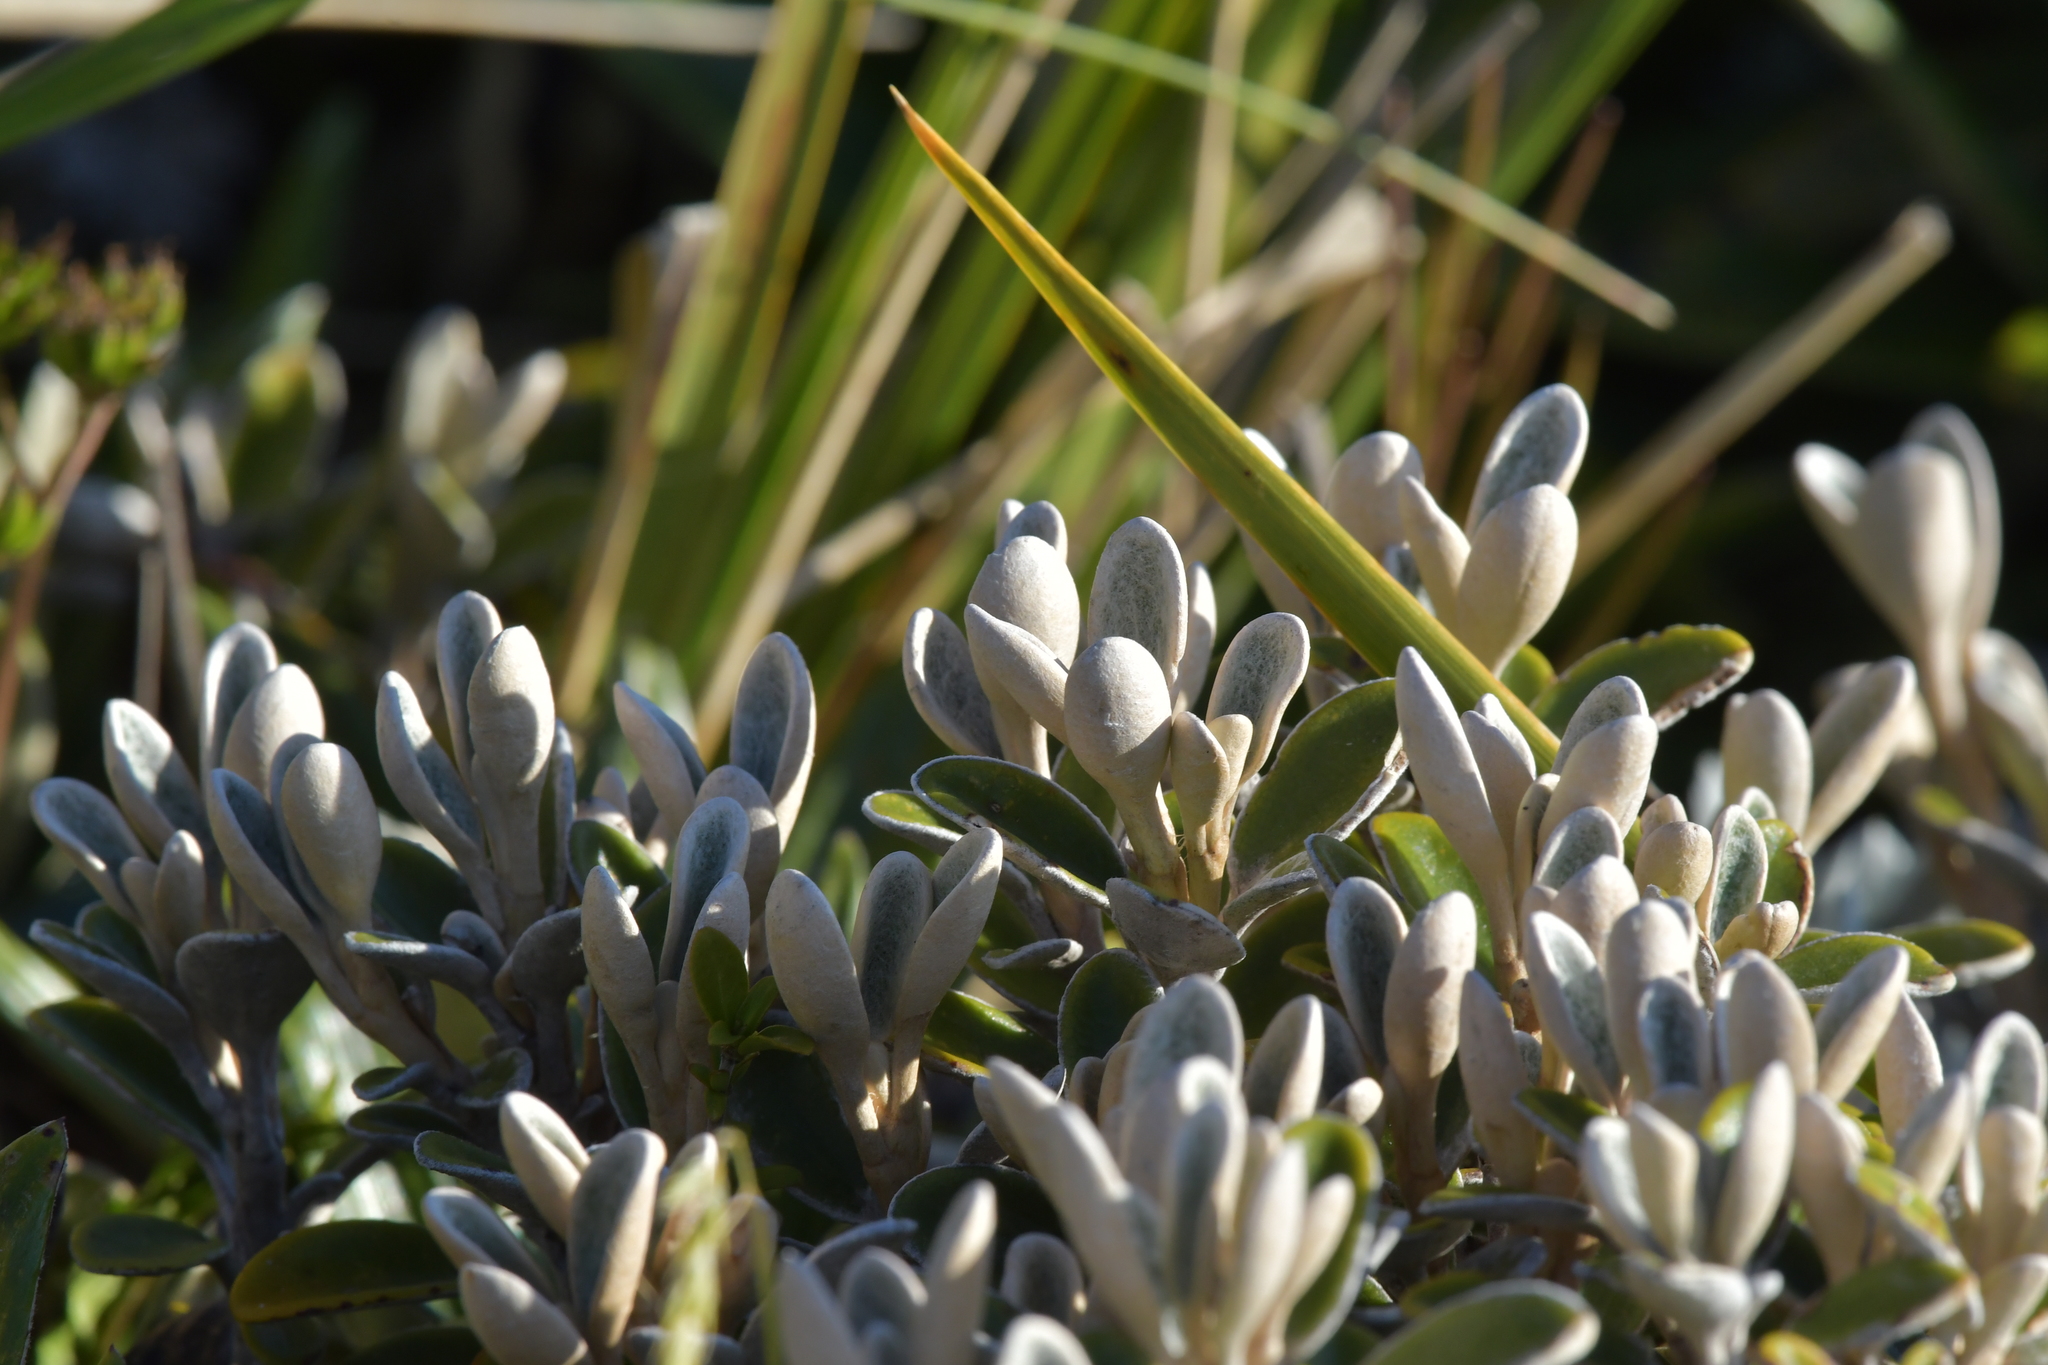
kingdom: Plantae
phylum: Tracheophyta
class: Magnoliopsida
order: Asterales
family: Asteraceae
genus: Brachyglottis
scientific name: Brachyglottis bidwillii
